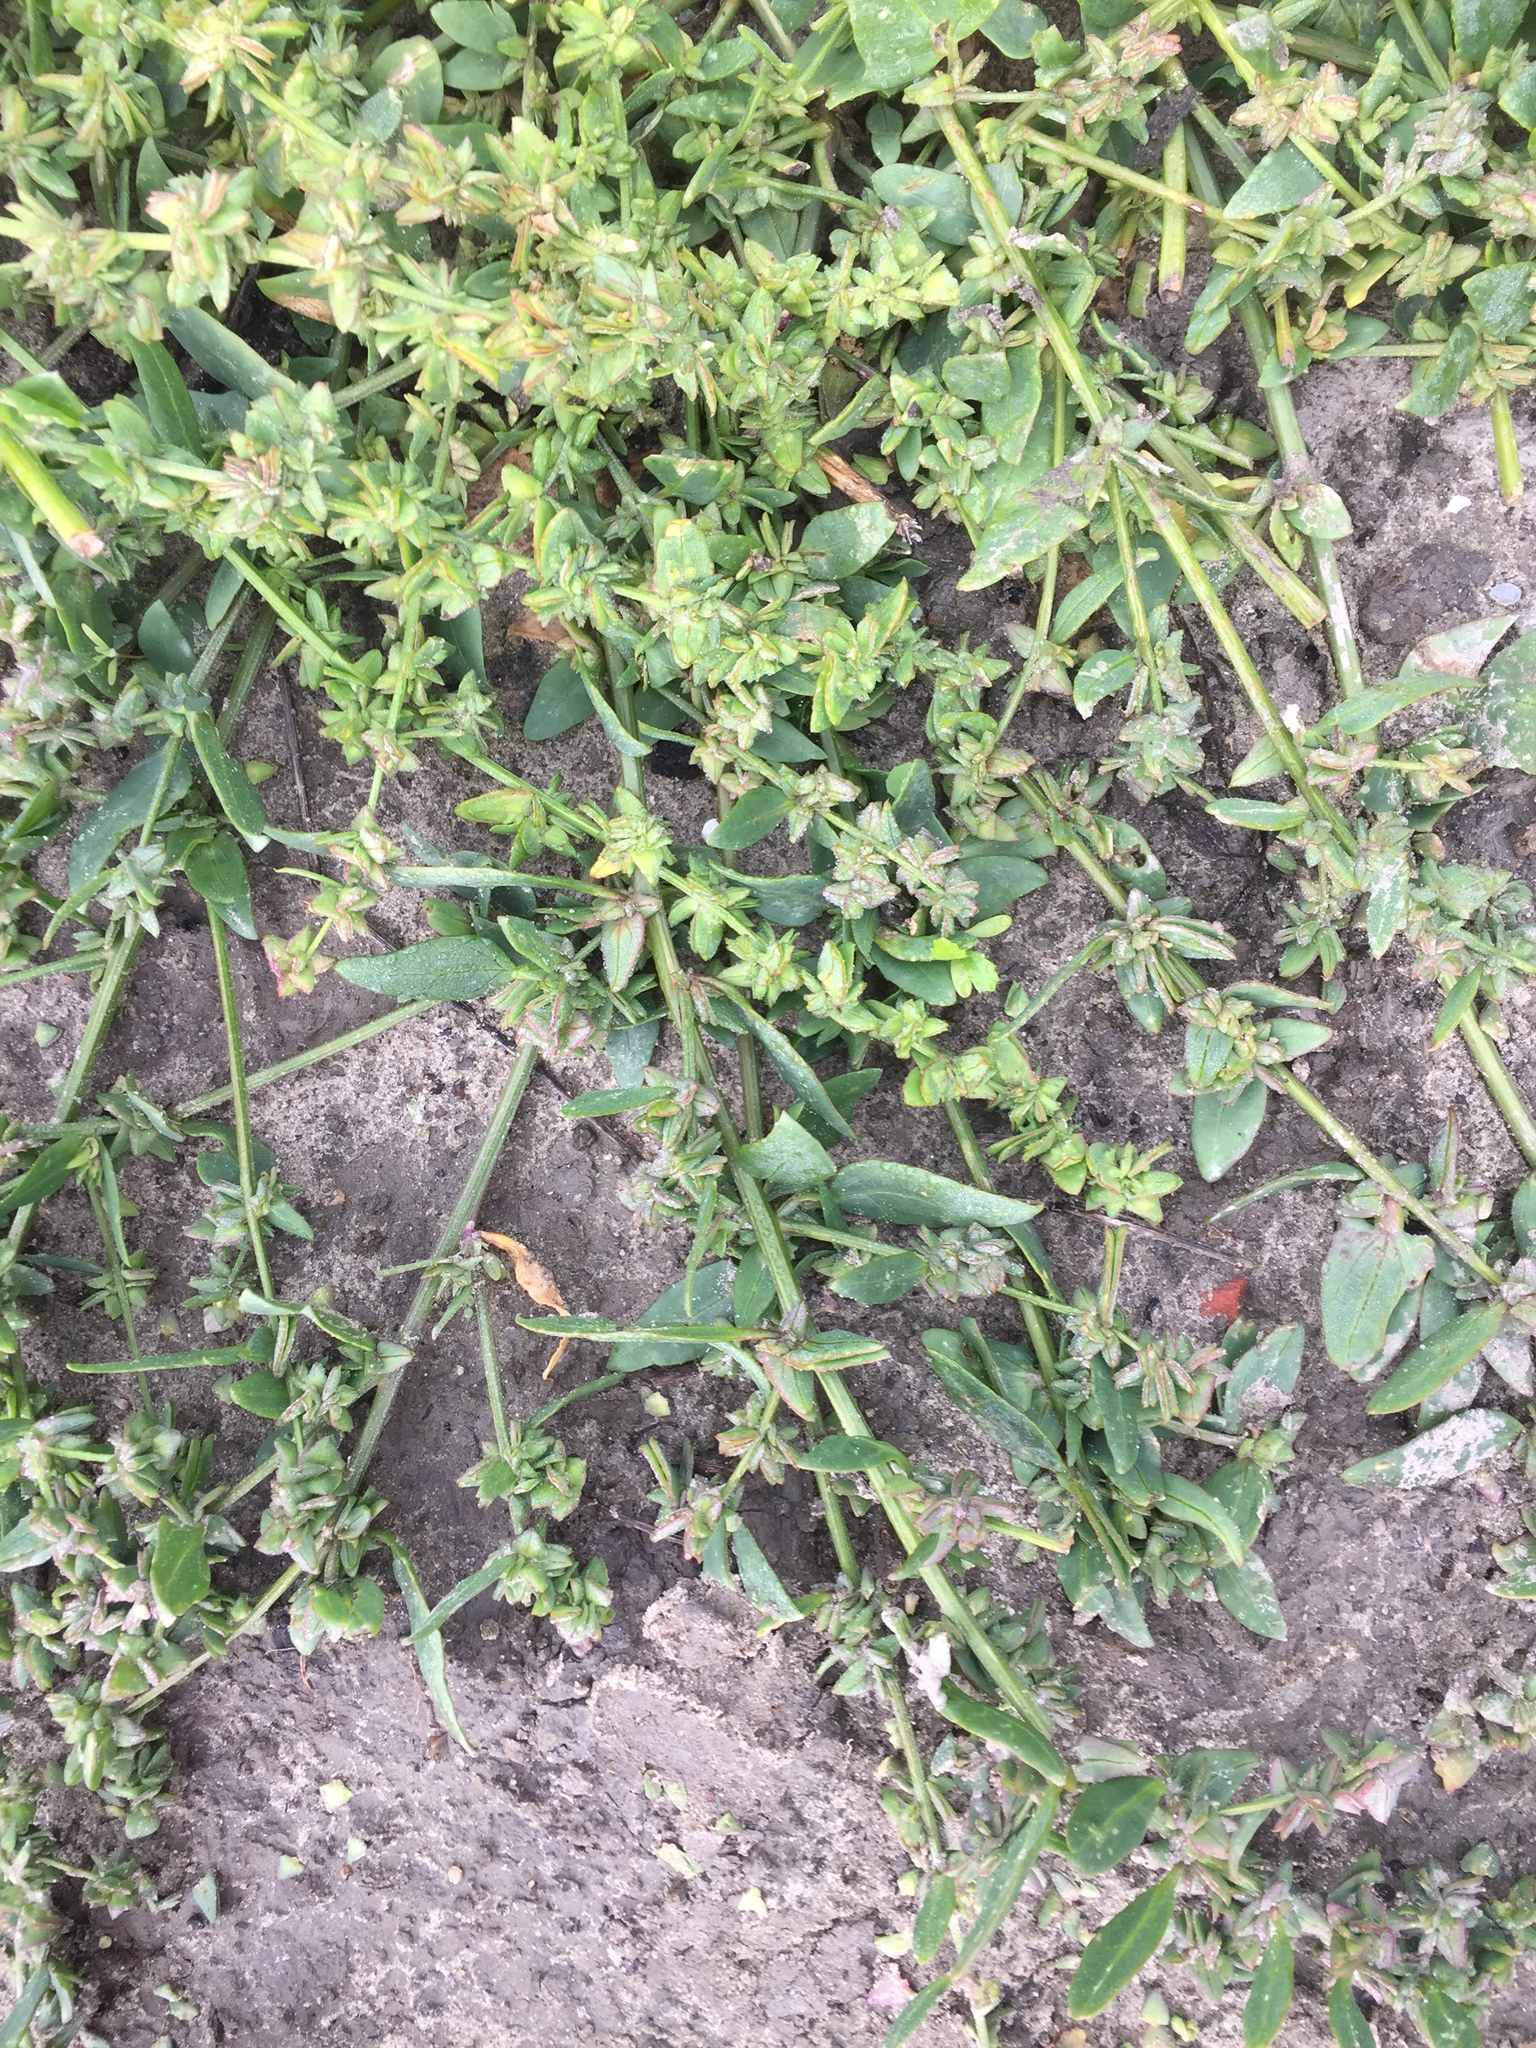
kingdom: Plantae
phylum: Tracheophyta
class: Magnoliopsida
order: Caryophyllales
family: Amaranthaceae
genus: Atriplex
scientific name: Atriplex gustafssoniana
